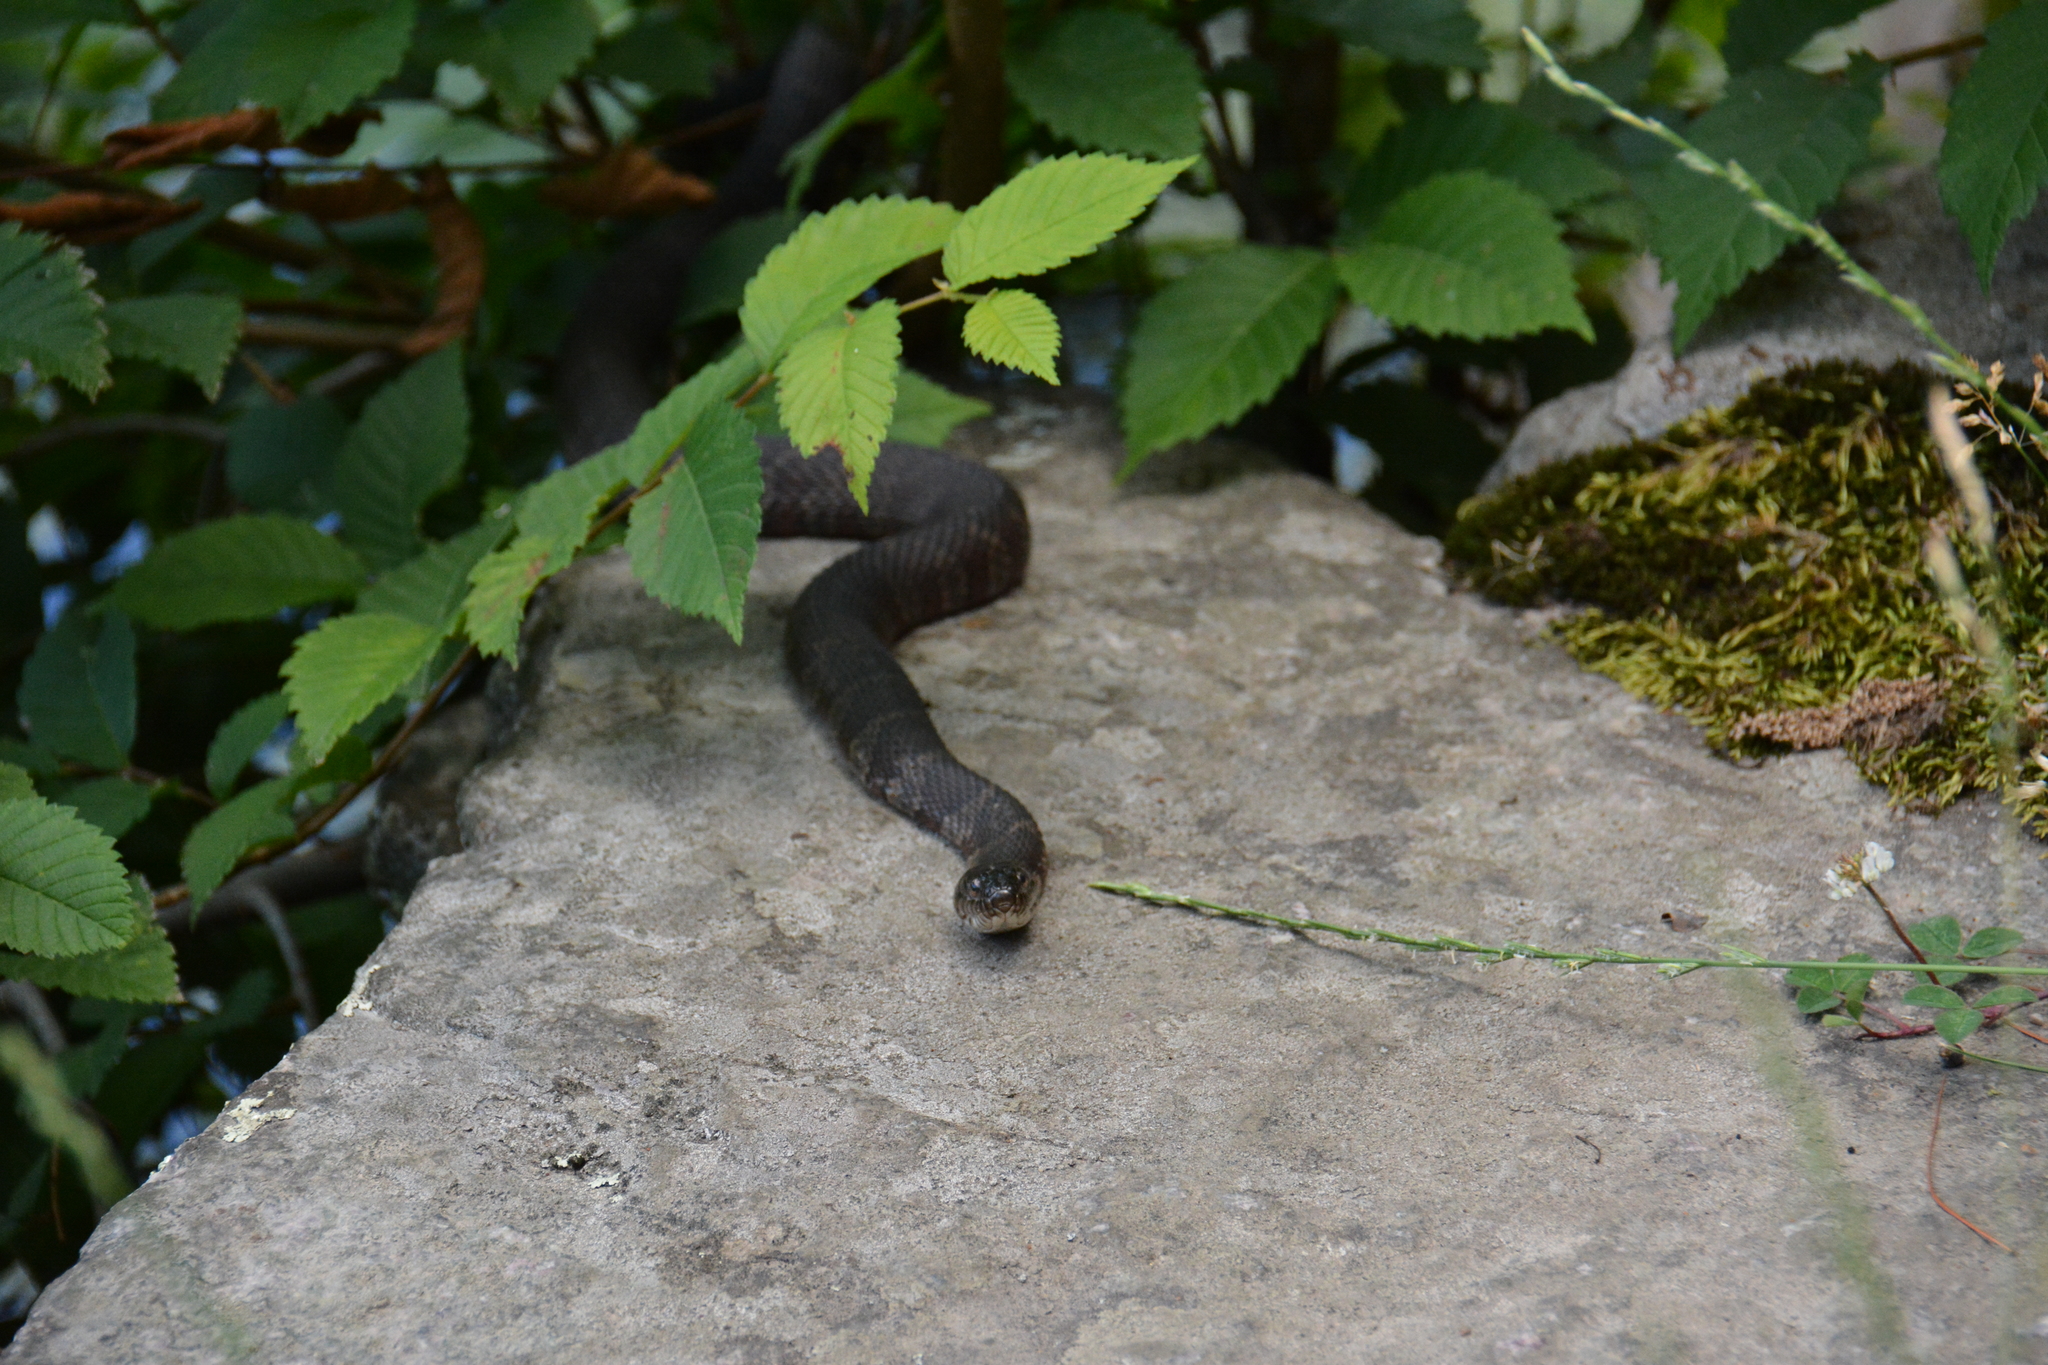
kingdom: Animalia
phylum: Chordata
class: Squamata
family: Colubridae
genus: Nerodia
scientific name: Nerodia sipedon
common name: Northern water snake
